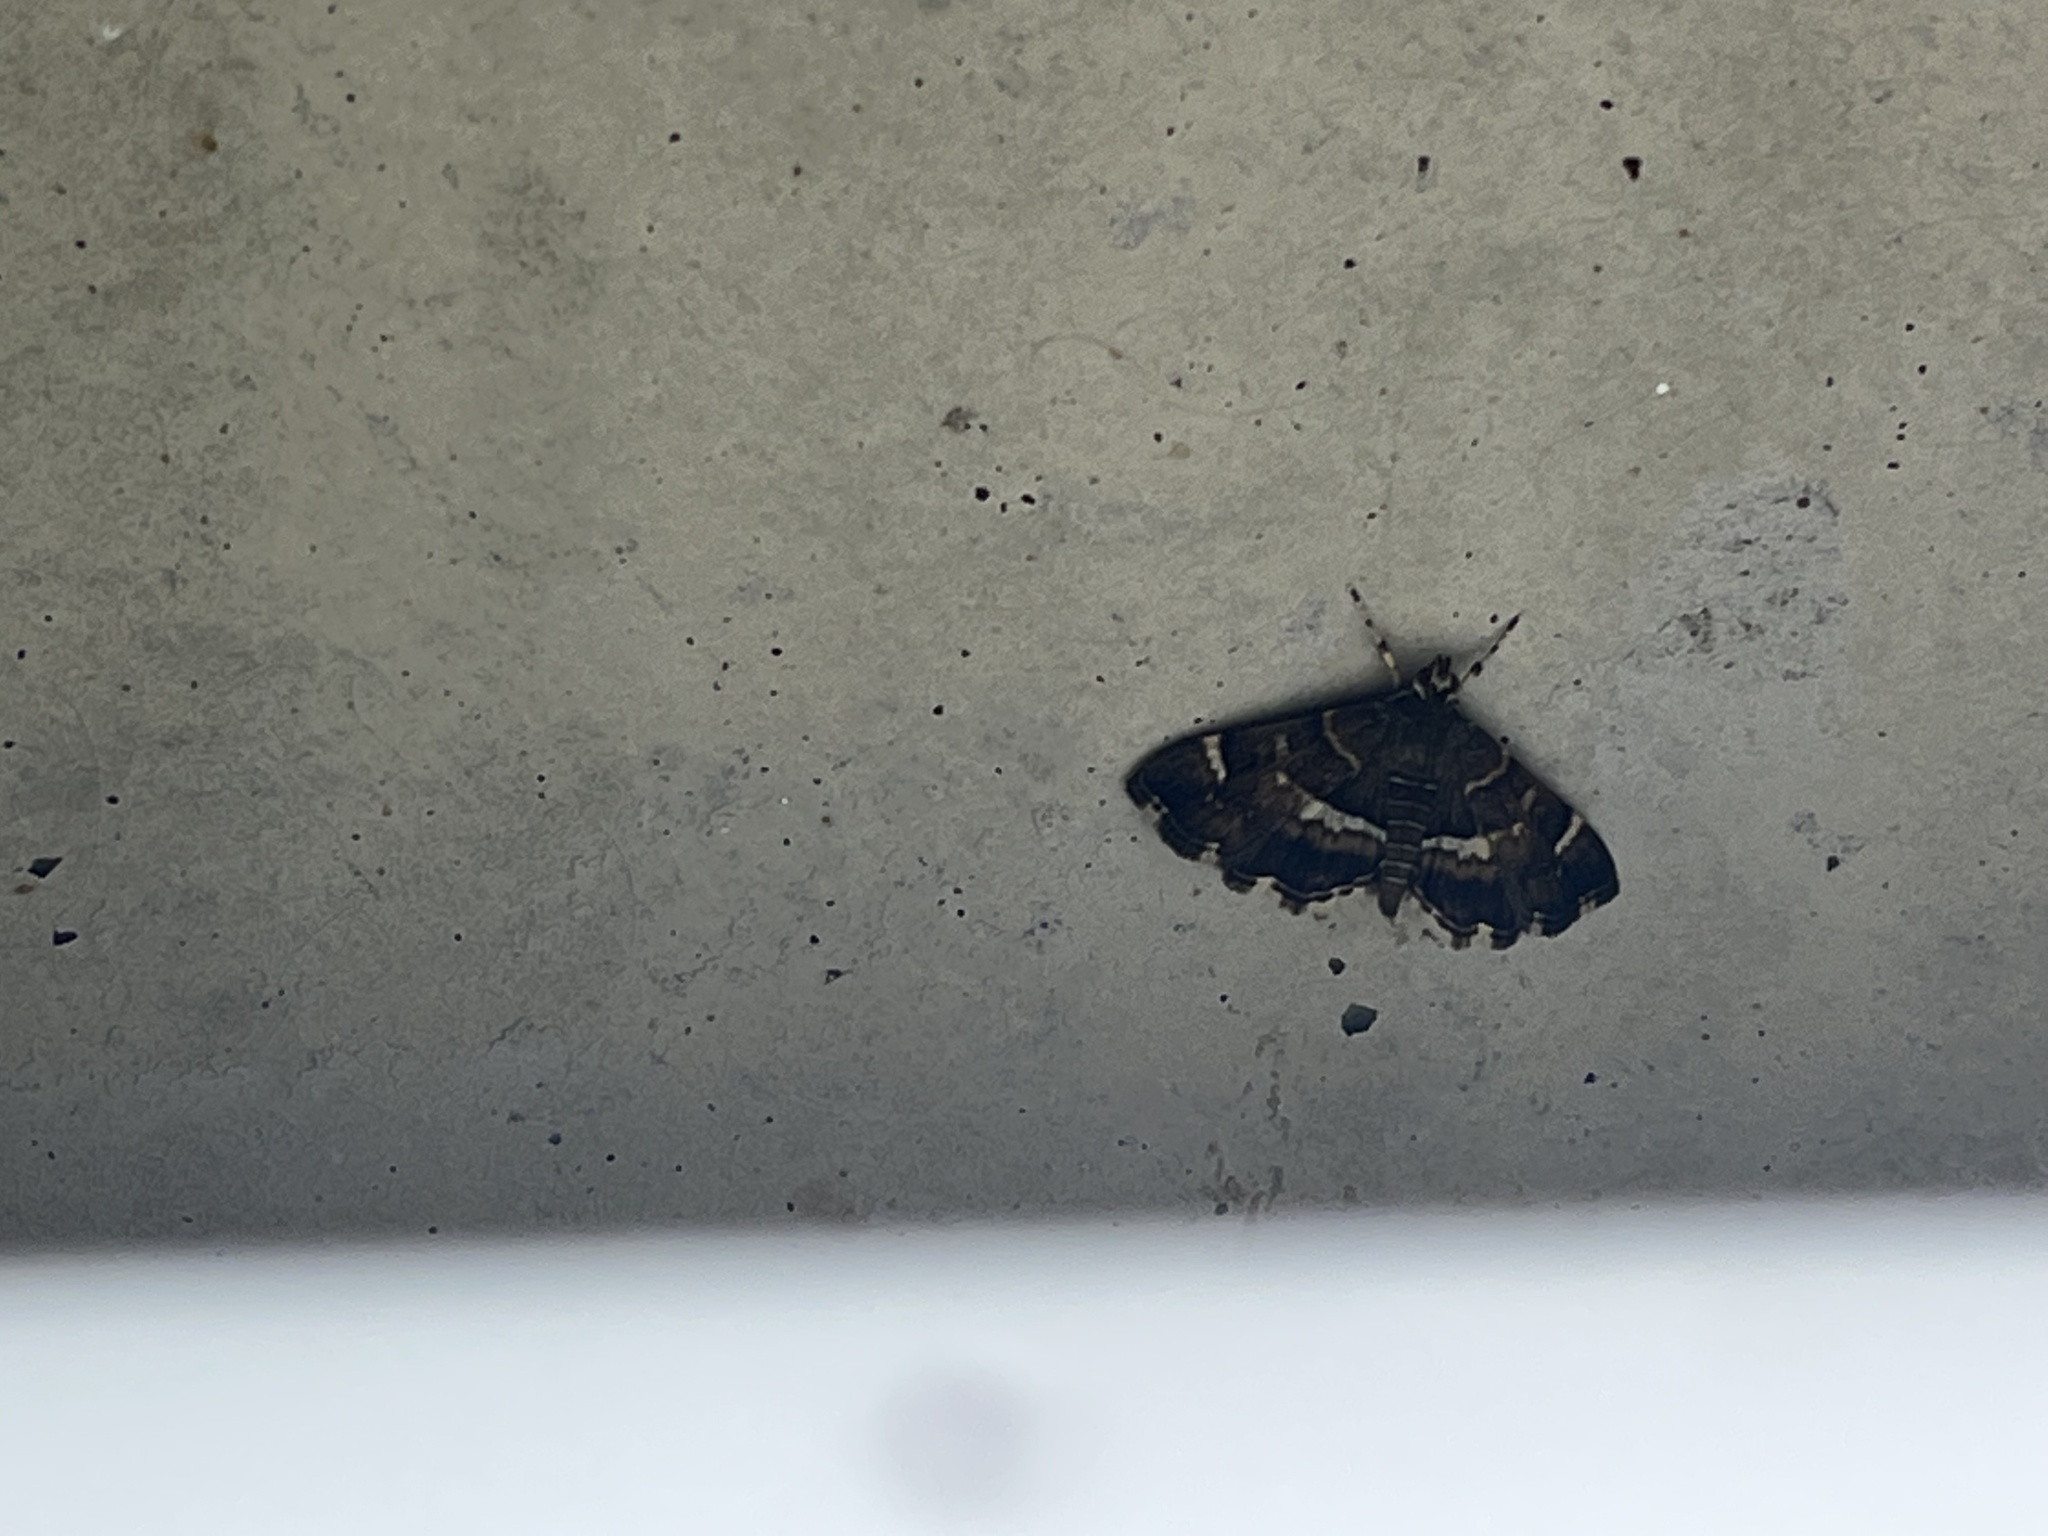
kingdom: Animalia
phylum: Arthropoda
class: Insecta
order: Lepidoptera
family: Crambidae
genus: Hymenia
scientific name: Hymenia perspectalis
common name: Spotted beet webworm
